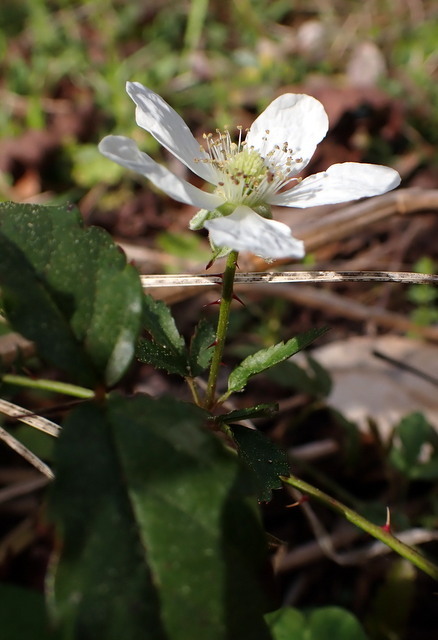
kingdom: Plantae
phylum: Tracheophyta
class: Magnoliopsida
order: Rosales
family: Rosaceae
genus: Rubus
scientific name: Rubus trivialis
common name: Southern dewberry
